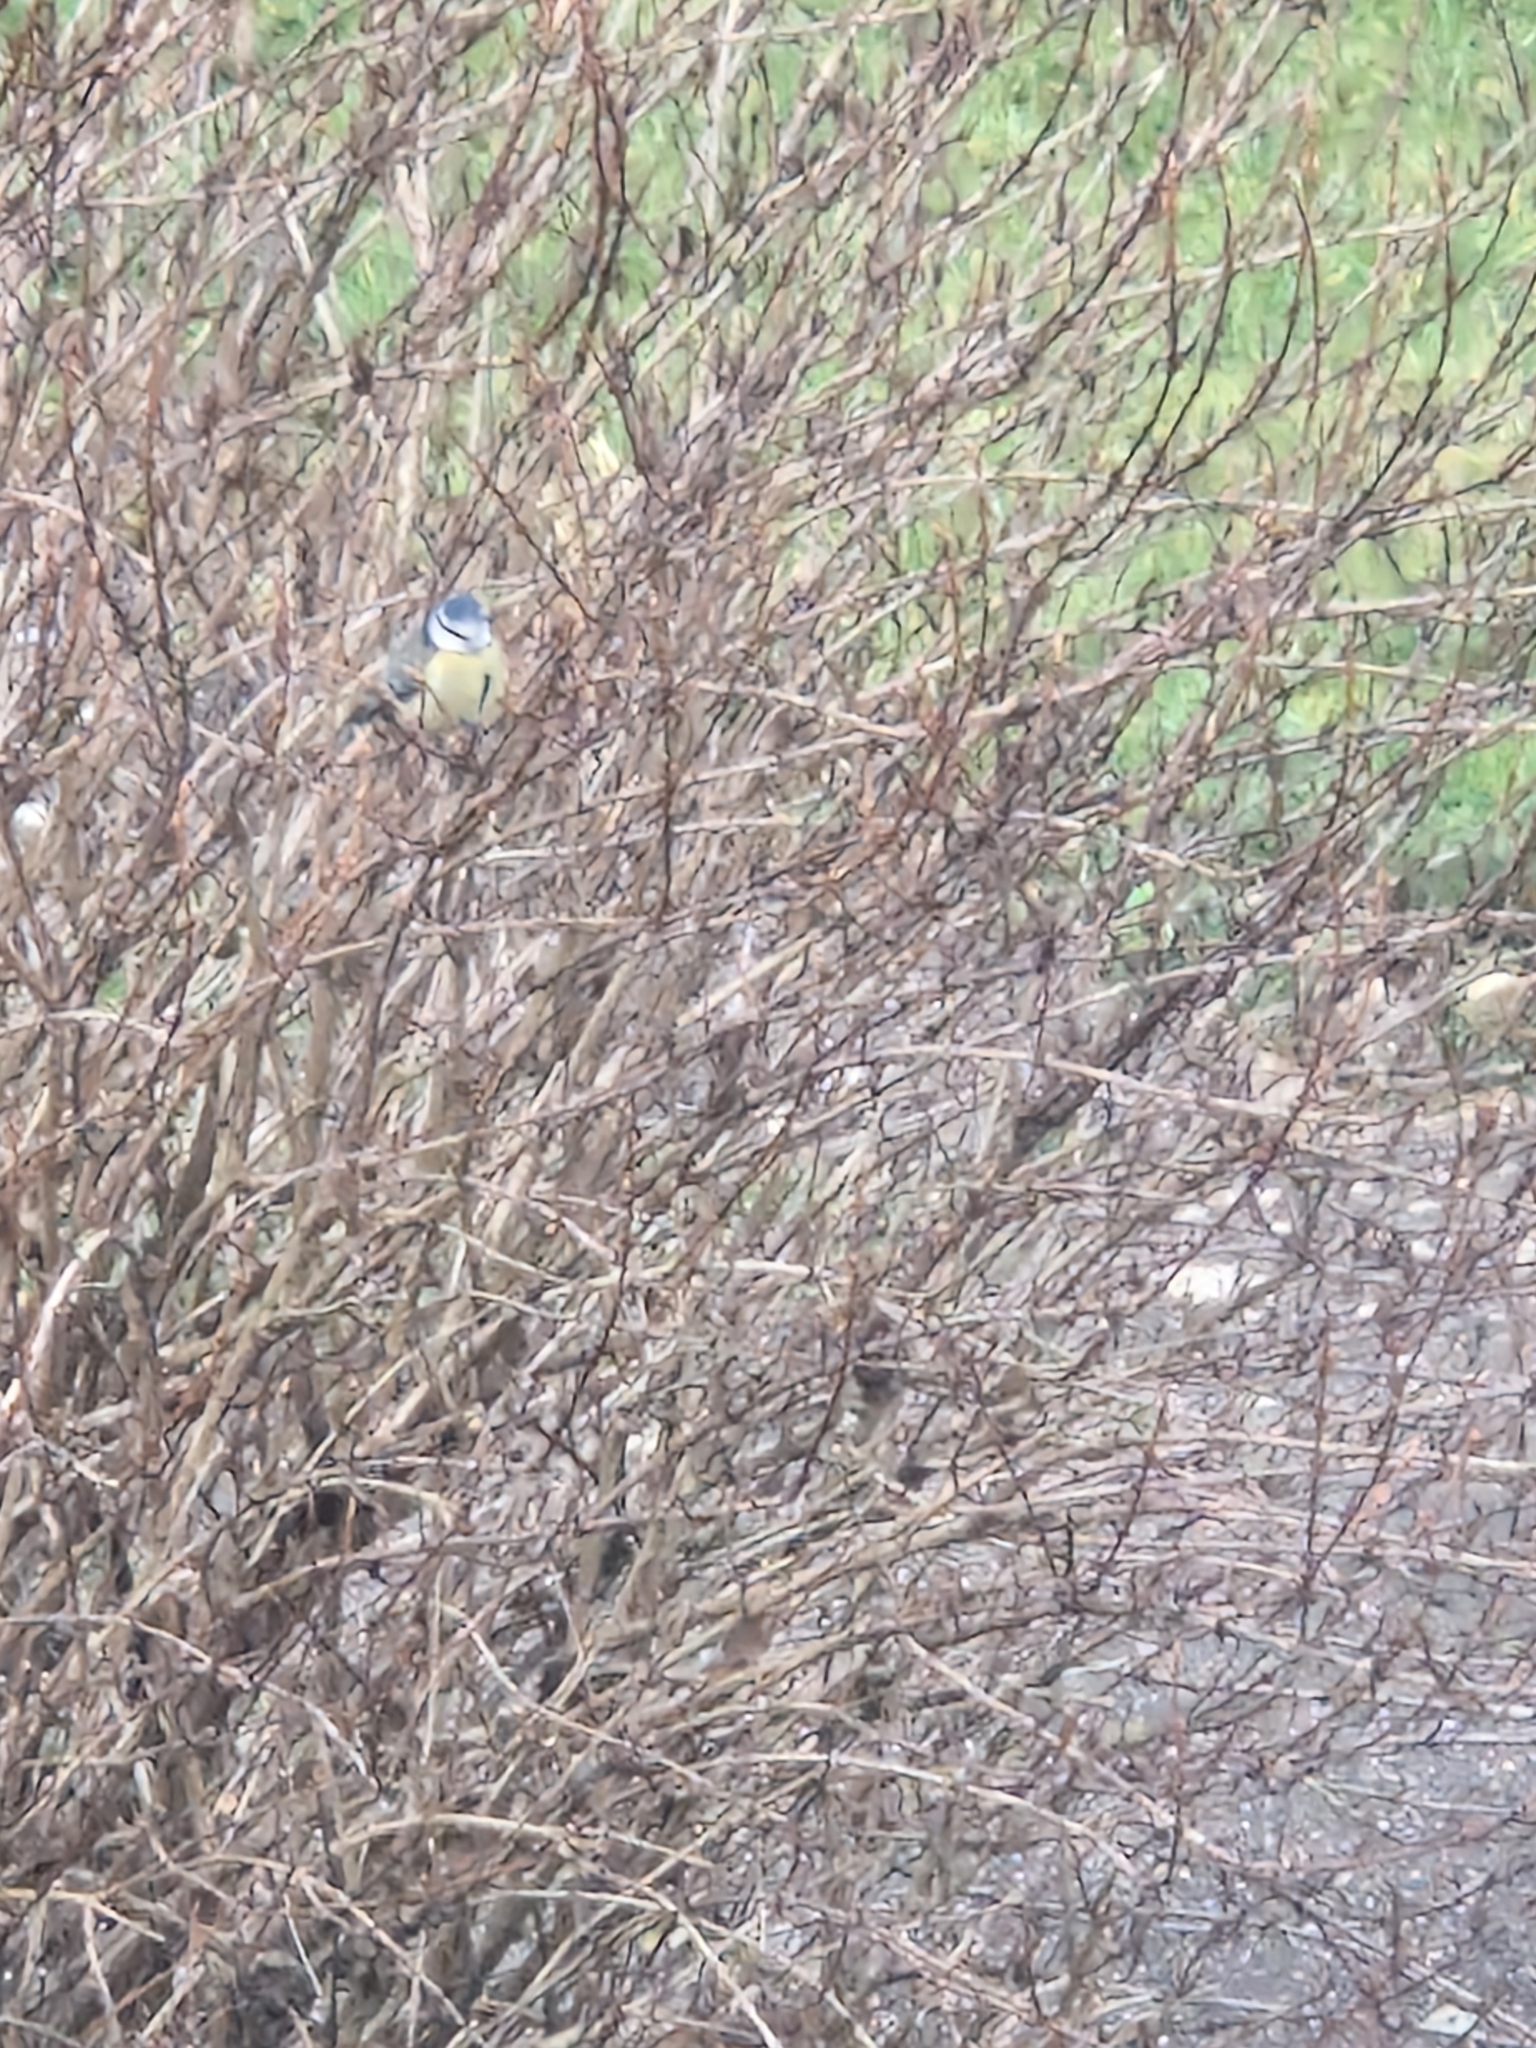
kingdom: Animalia
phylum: Chordata
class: Aves
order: Passeriformes
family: Paridae
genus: Cyanistes
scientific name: Cyanistes caeruleus
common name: Eurasian blue tit
